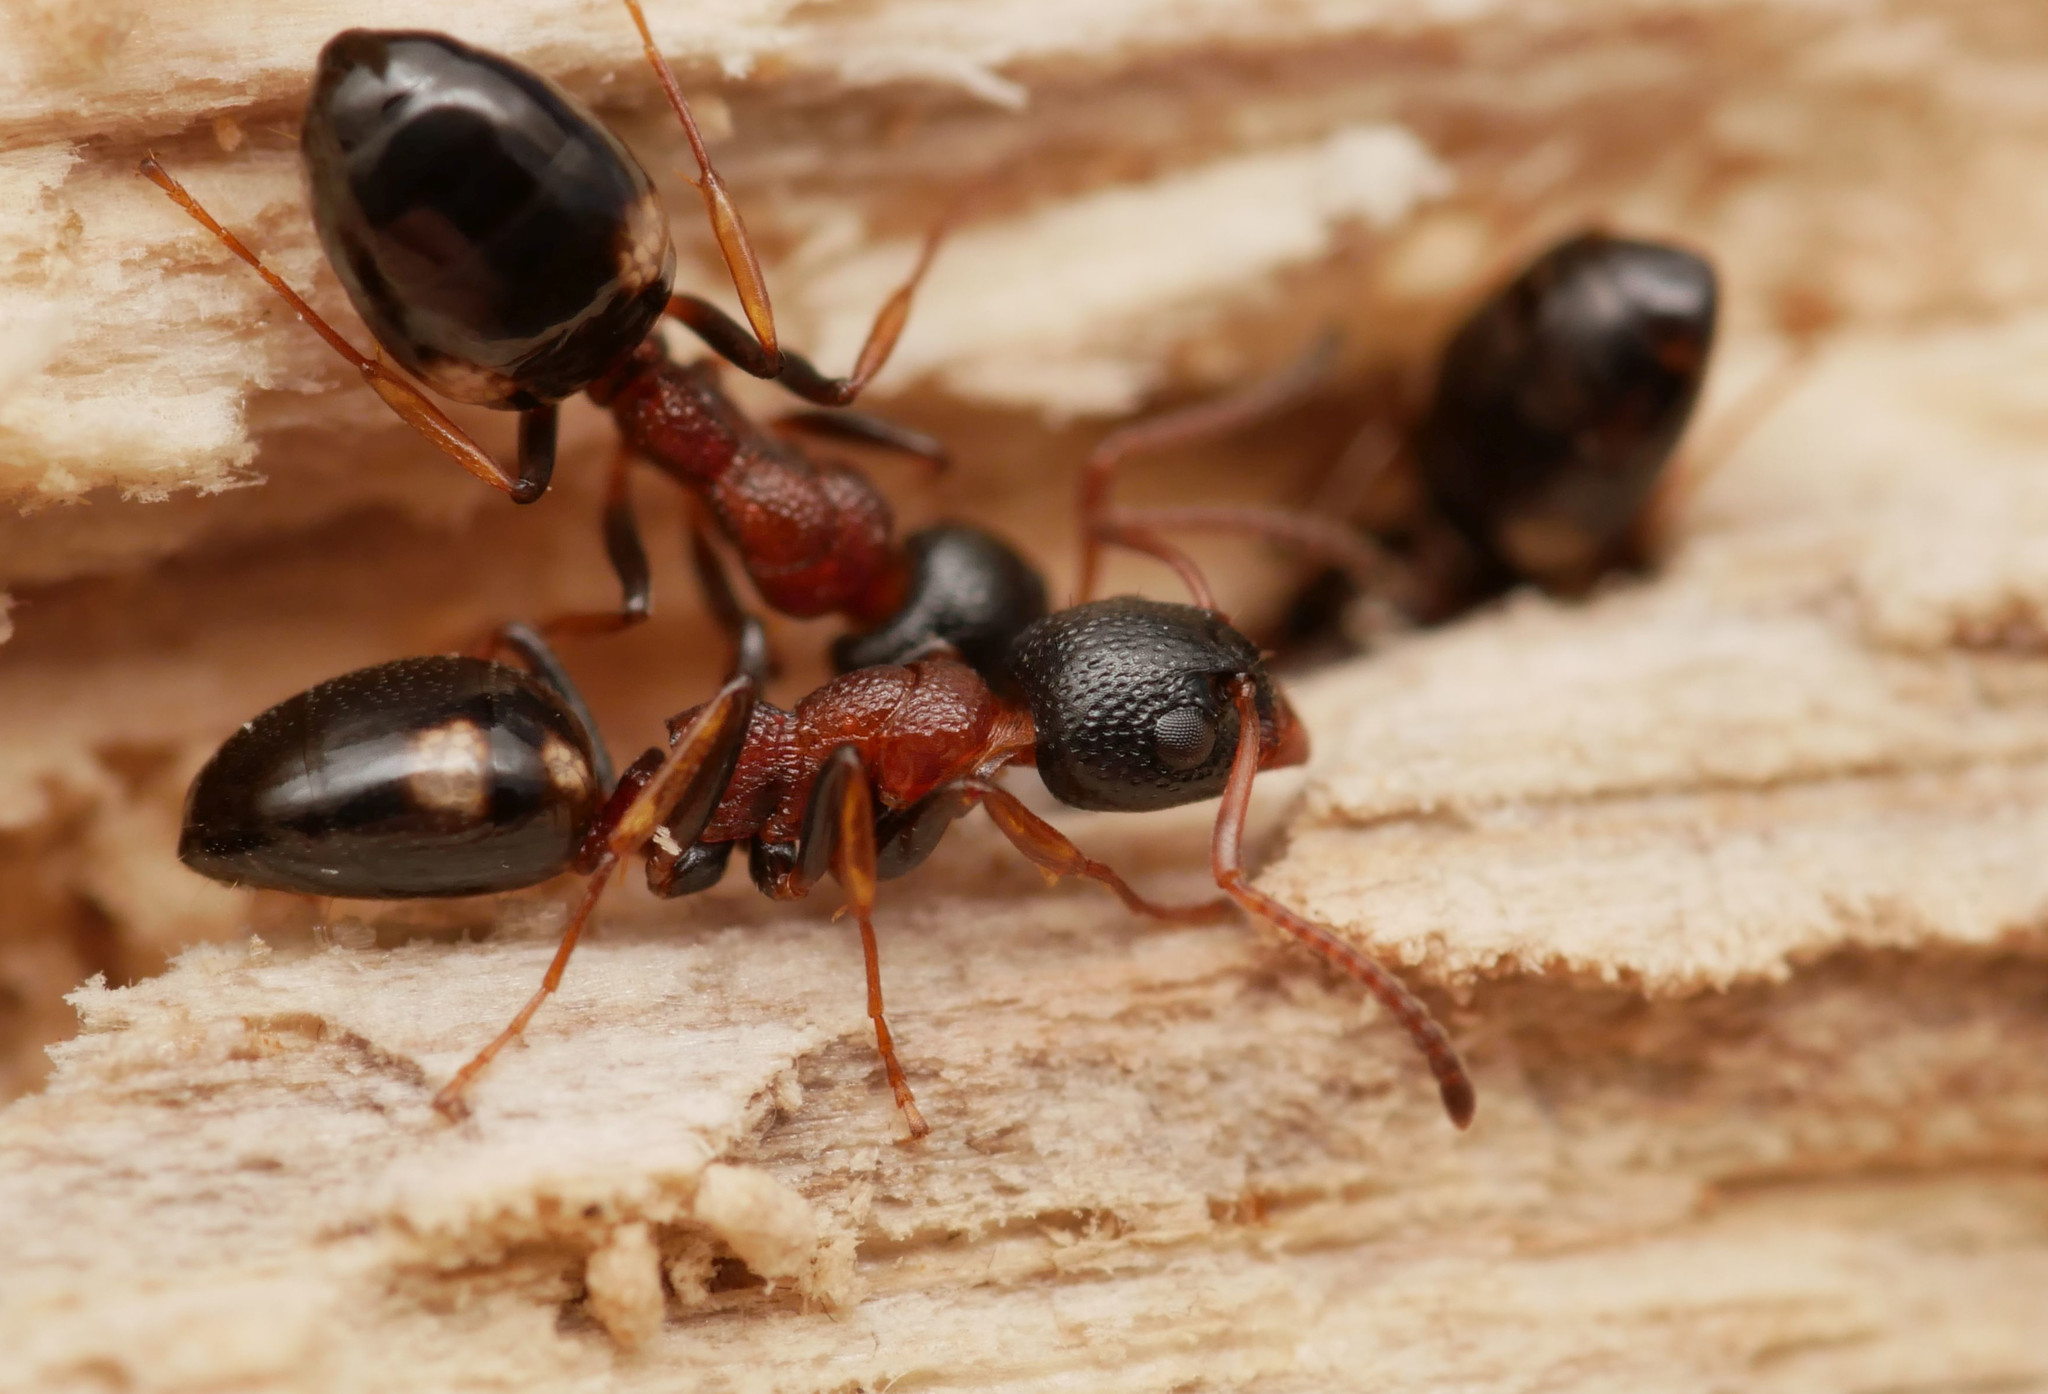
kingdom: Animalia
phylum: Arthropoda
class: Insecta
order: Hymenoptera
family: Formicidae
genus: Dolichoderus
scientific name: Dolichoderus quadripunctatus
